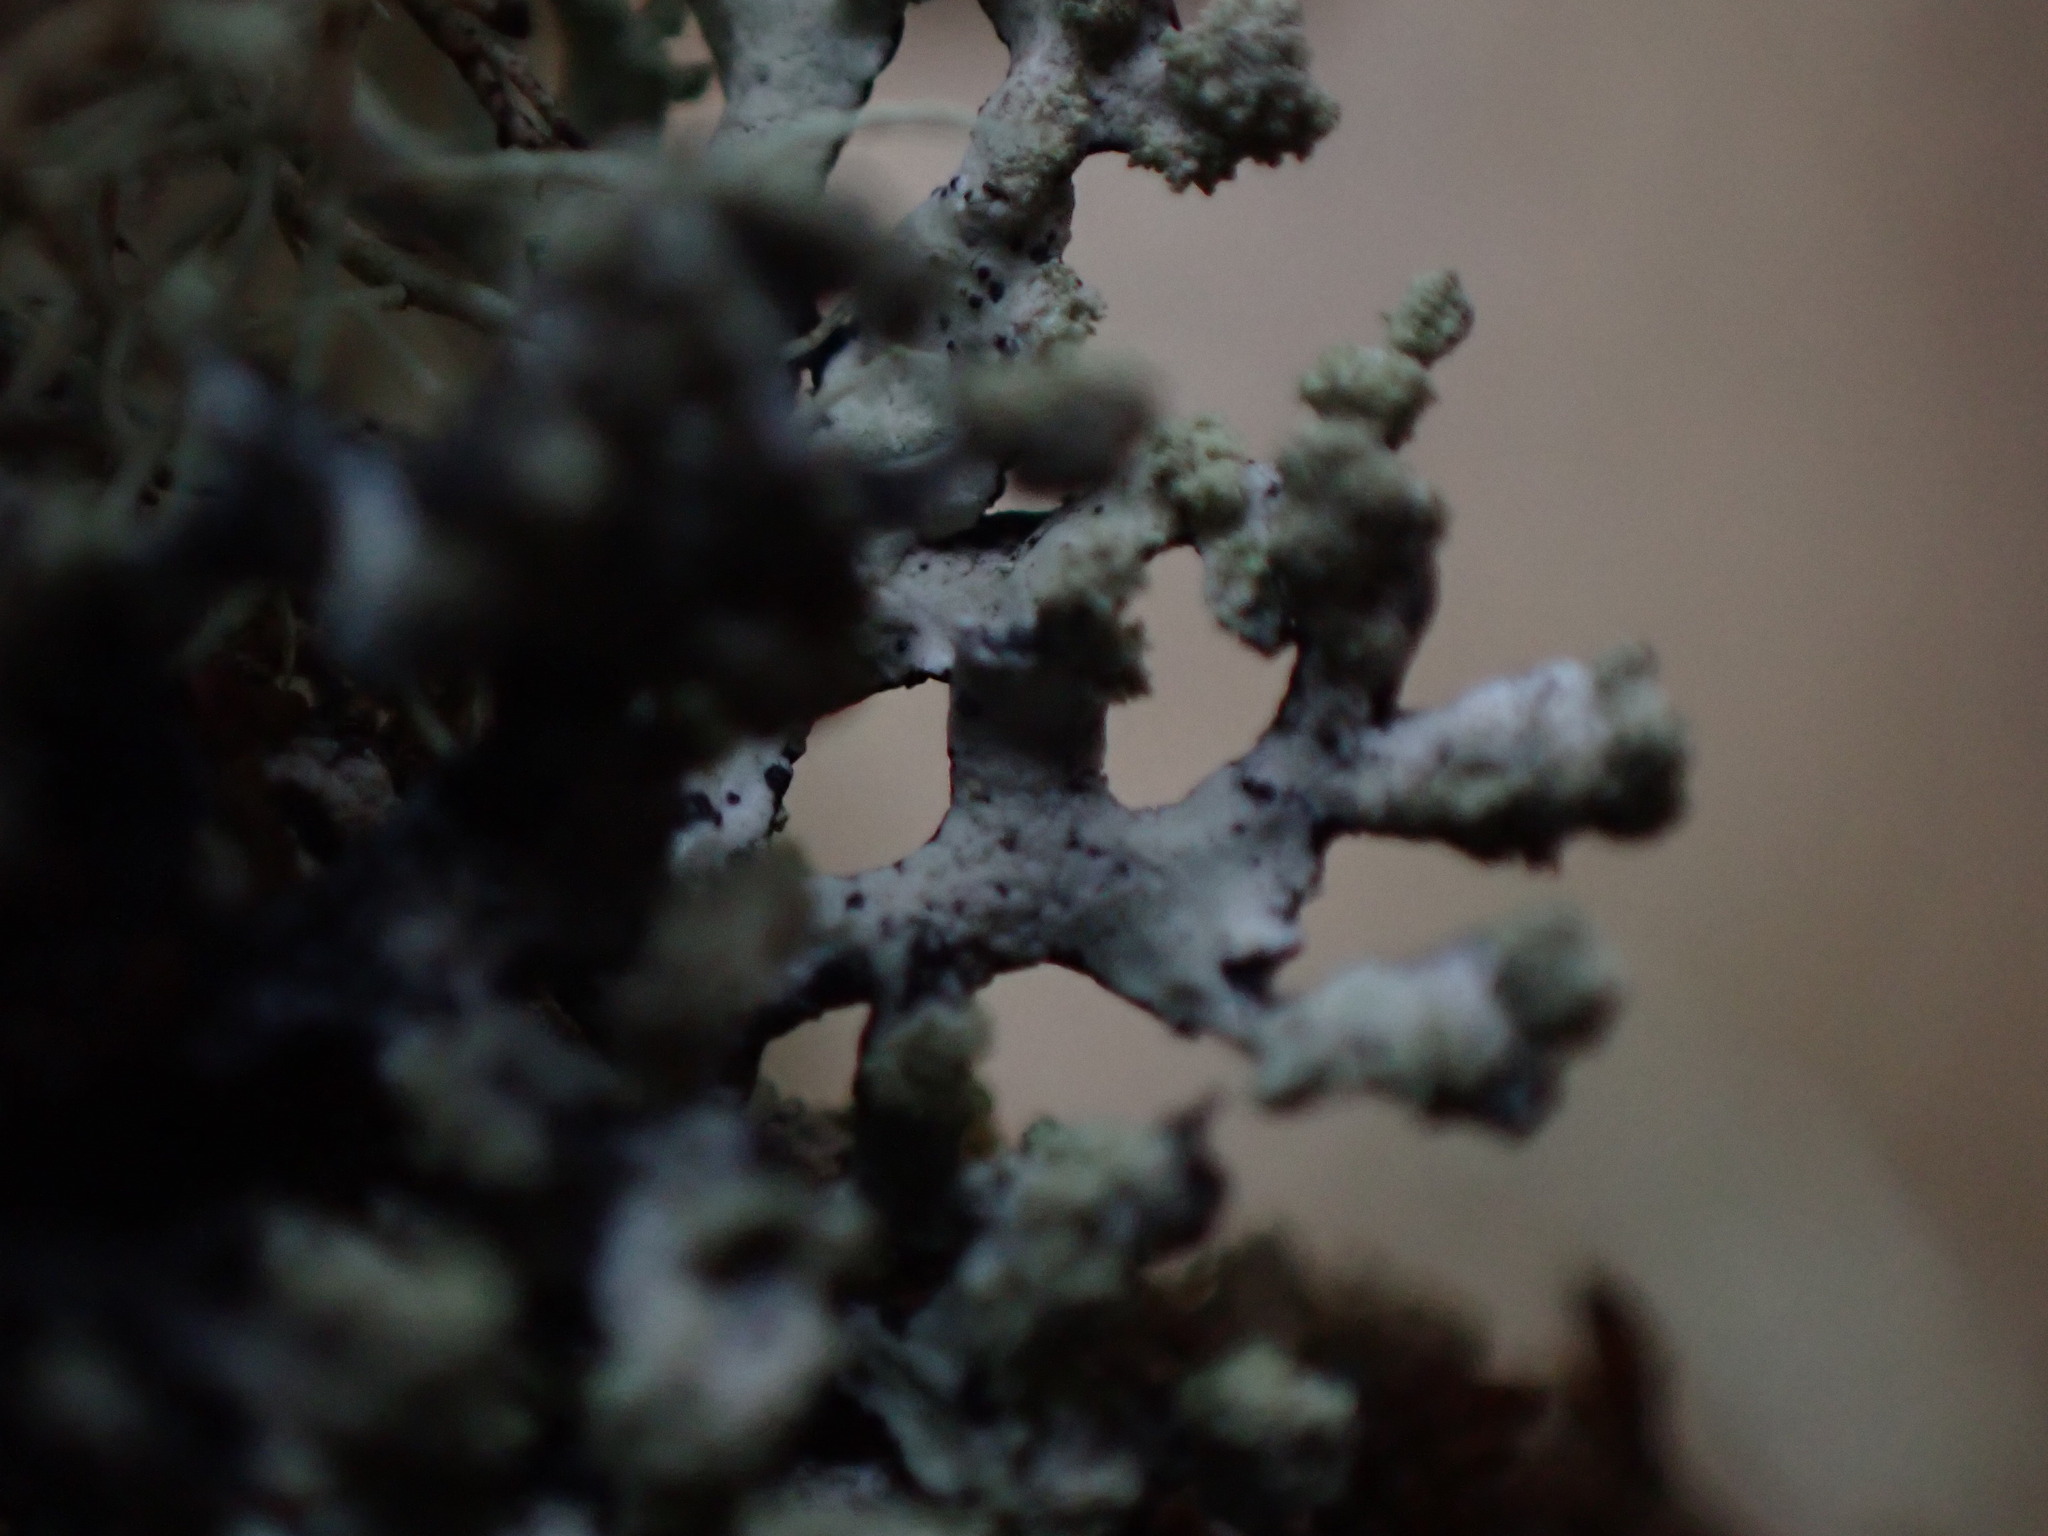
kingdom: Fungi
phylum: Ascomycota
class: Lecanoromycetes
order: Lecanorales
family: Parmeliaceae
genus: Hypogymnia
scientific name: Hypogymnia hultenii
